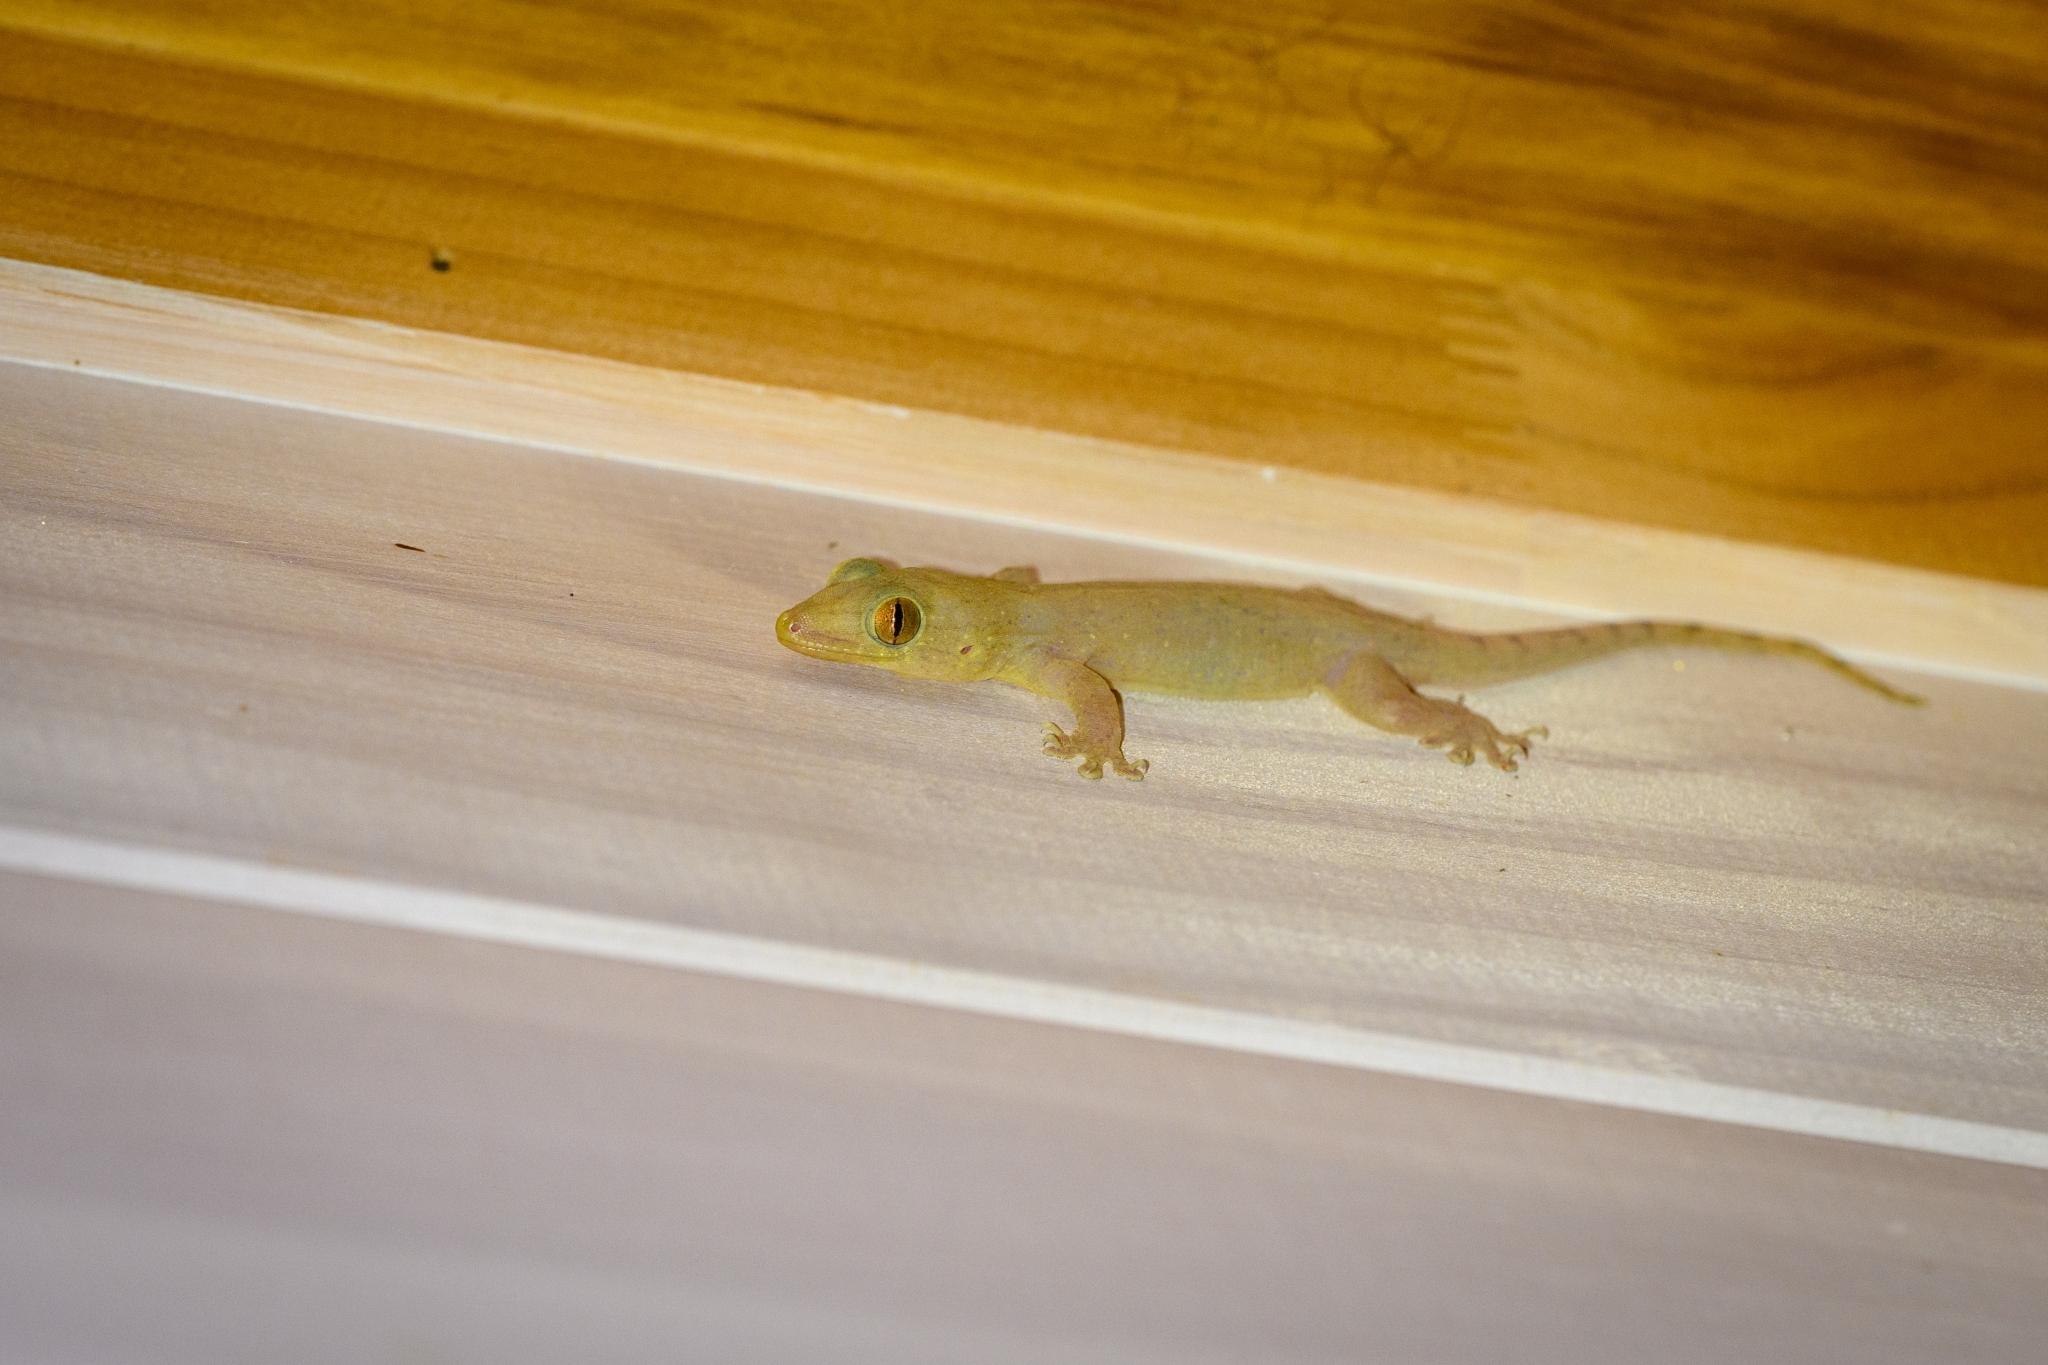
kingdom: Animalia
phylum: Chordata
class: Squamata
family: Gekkonidae
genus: Gehyra
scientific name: Gehyra oceanica
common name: Pacific dtella
